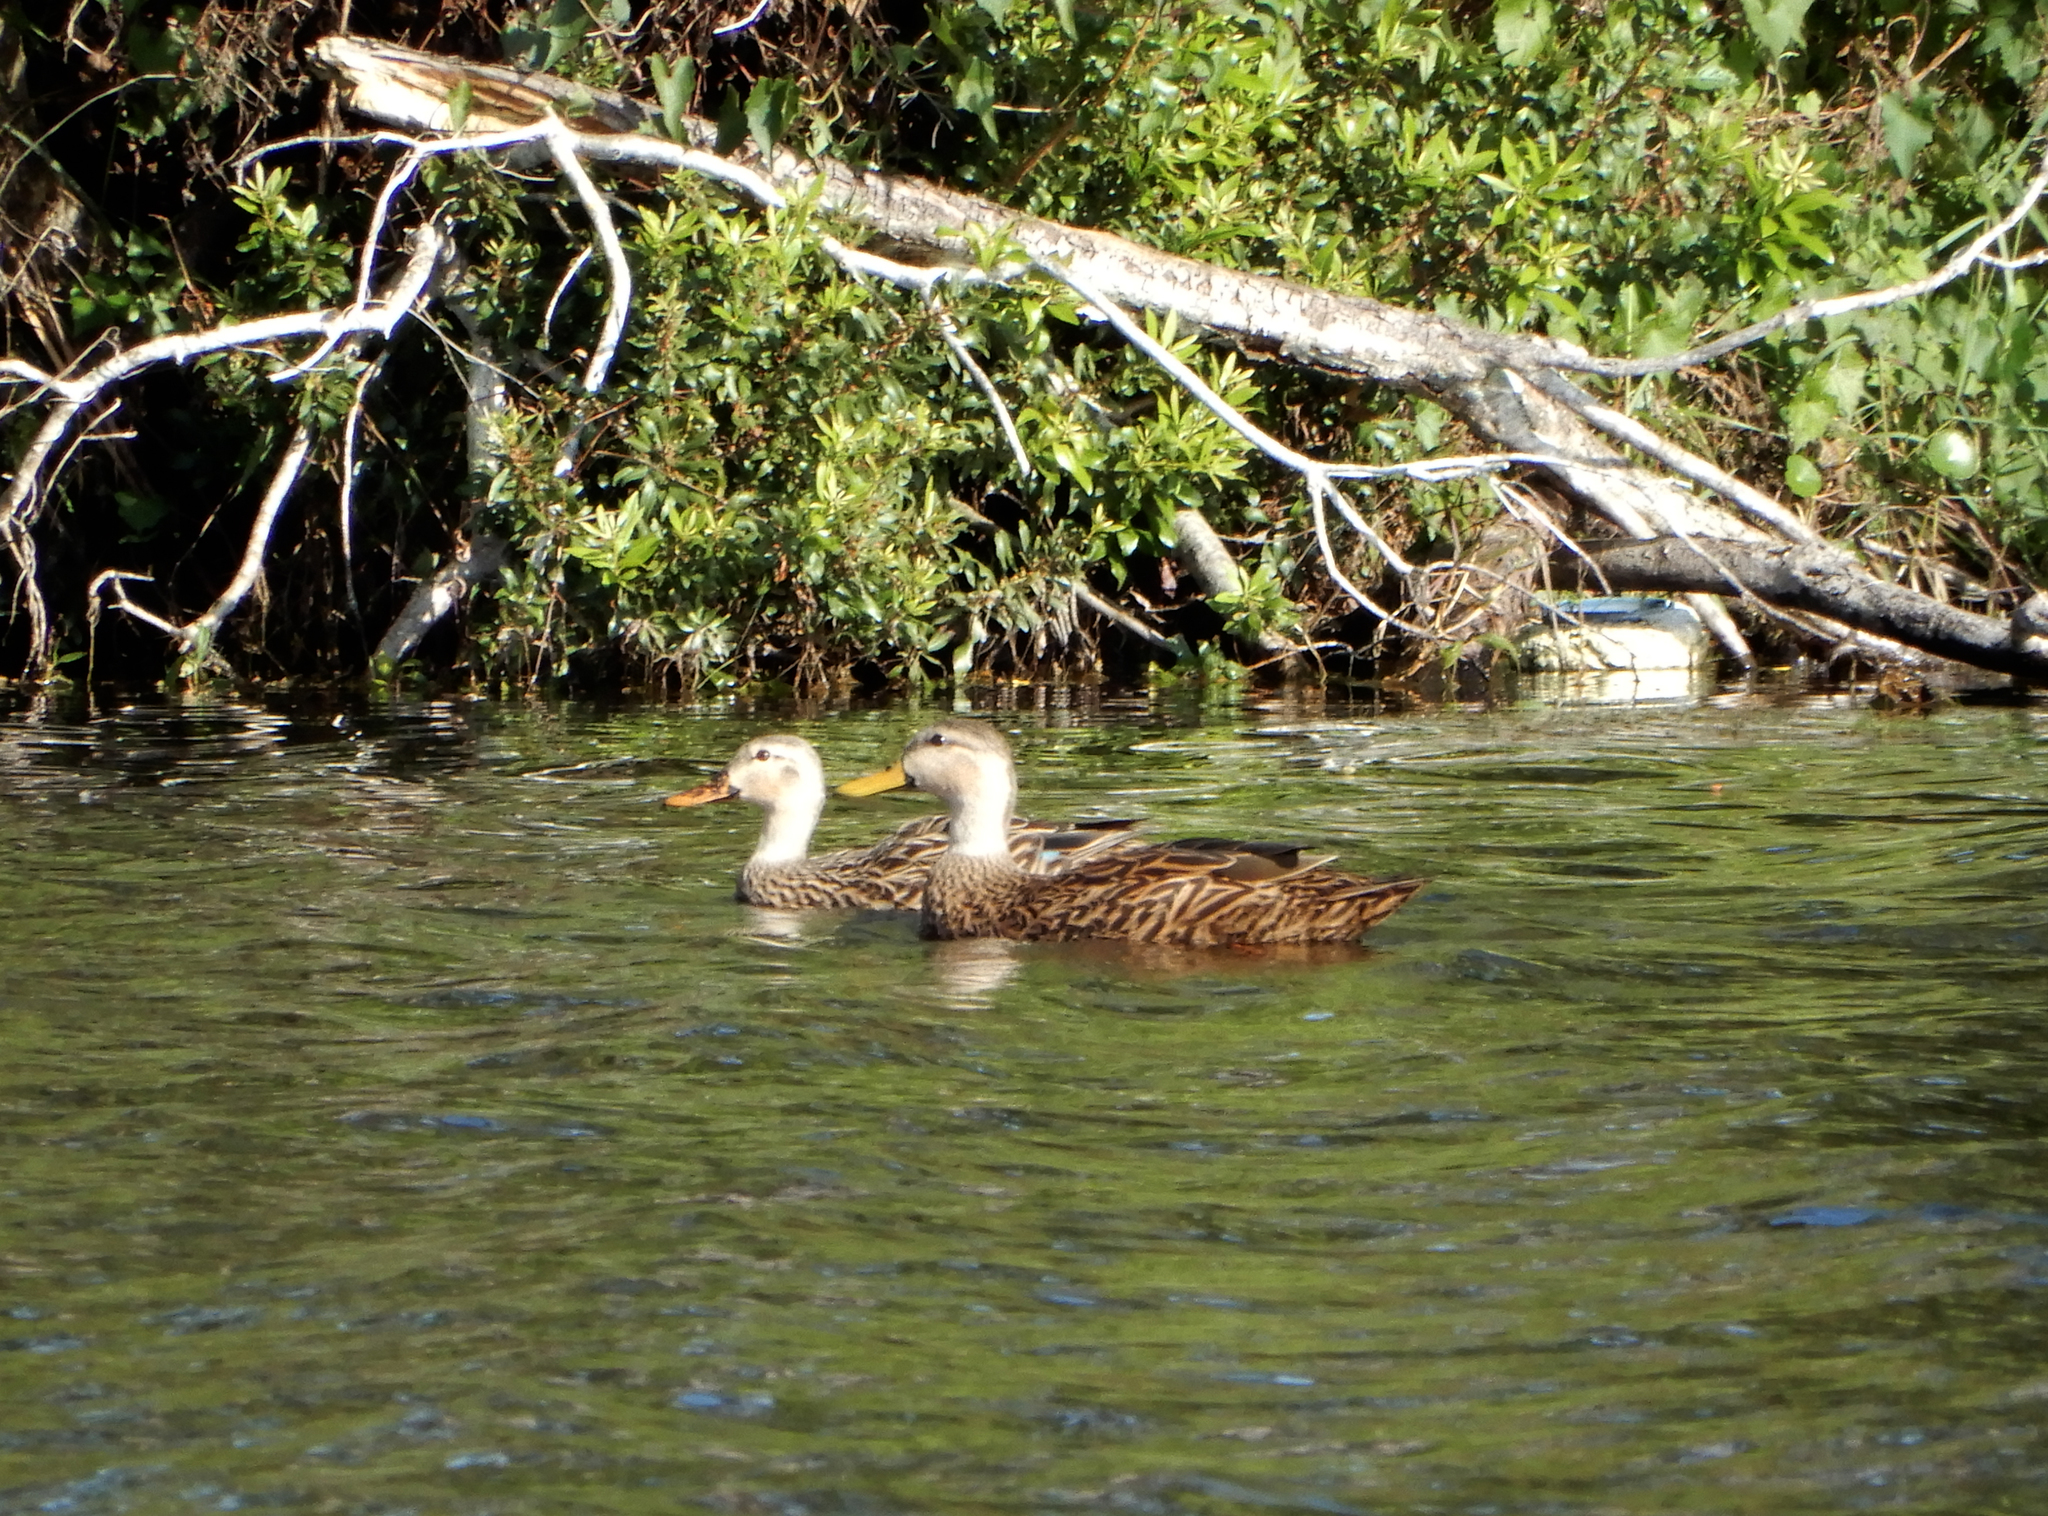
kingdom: Animalia
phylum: Chordata
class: Aves
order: Anseriformes
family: Anatidae
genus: Anas
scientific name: Anas fulvigula
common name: Mottled duck
